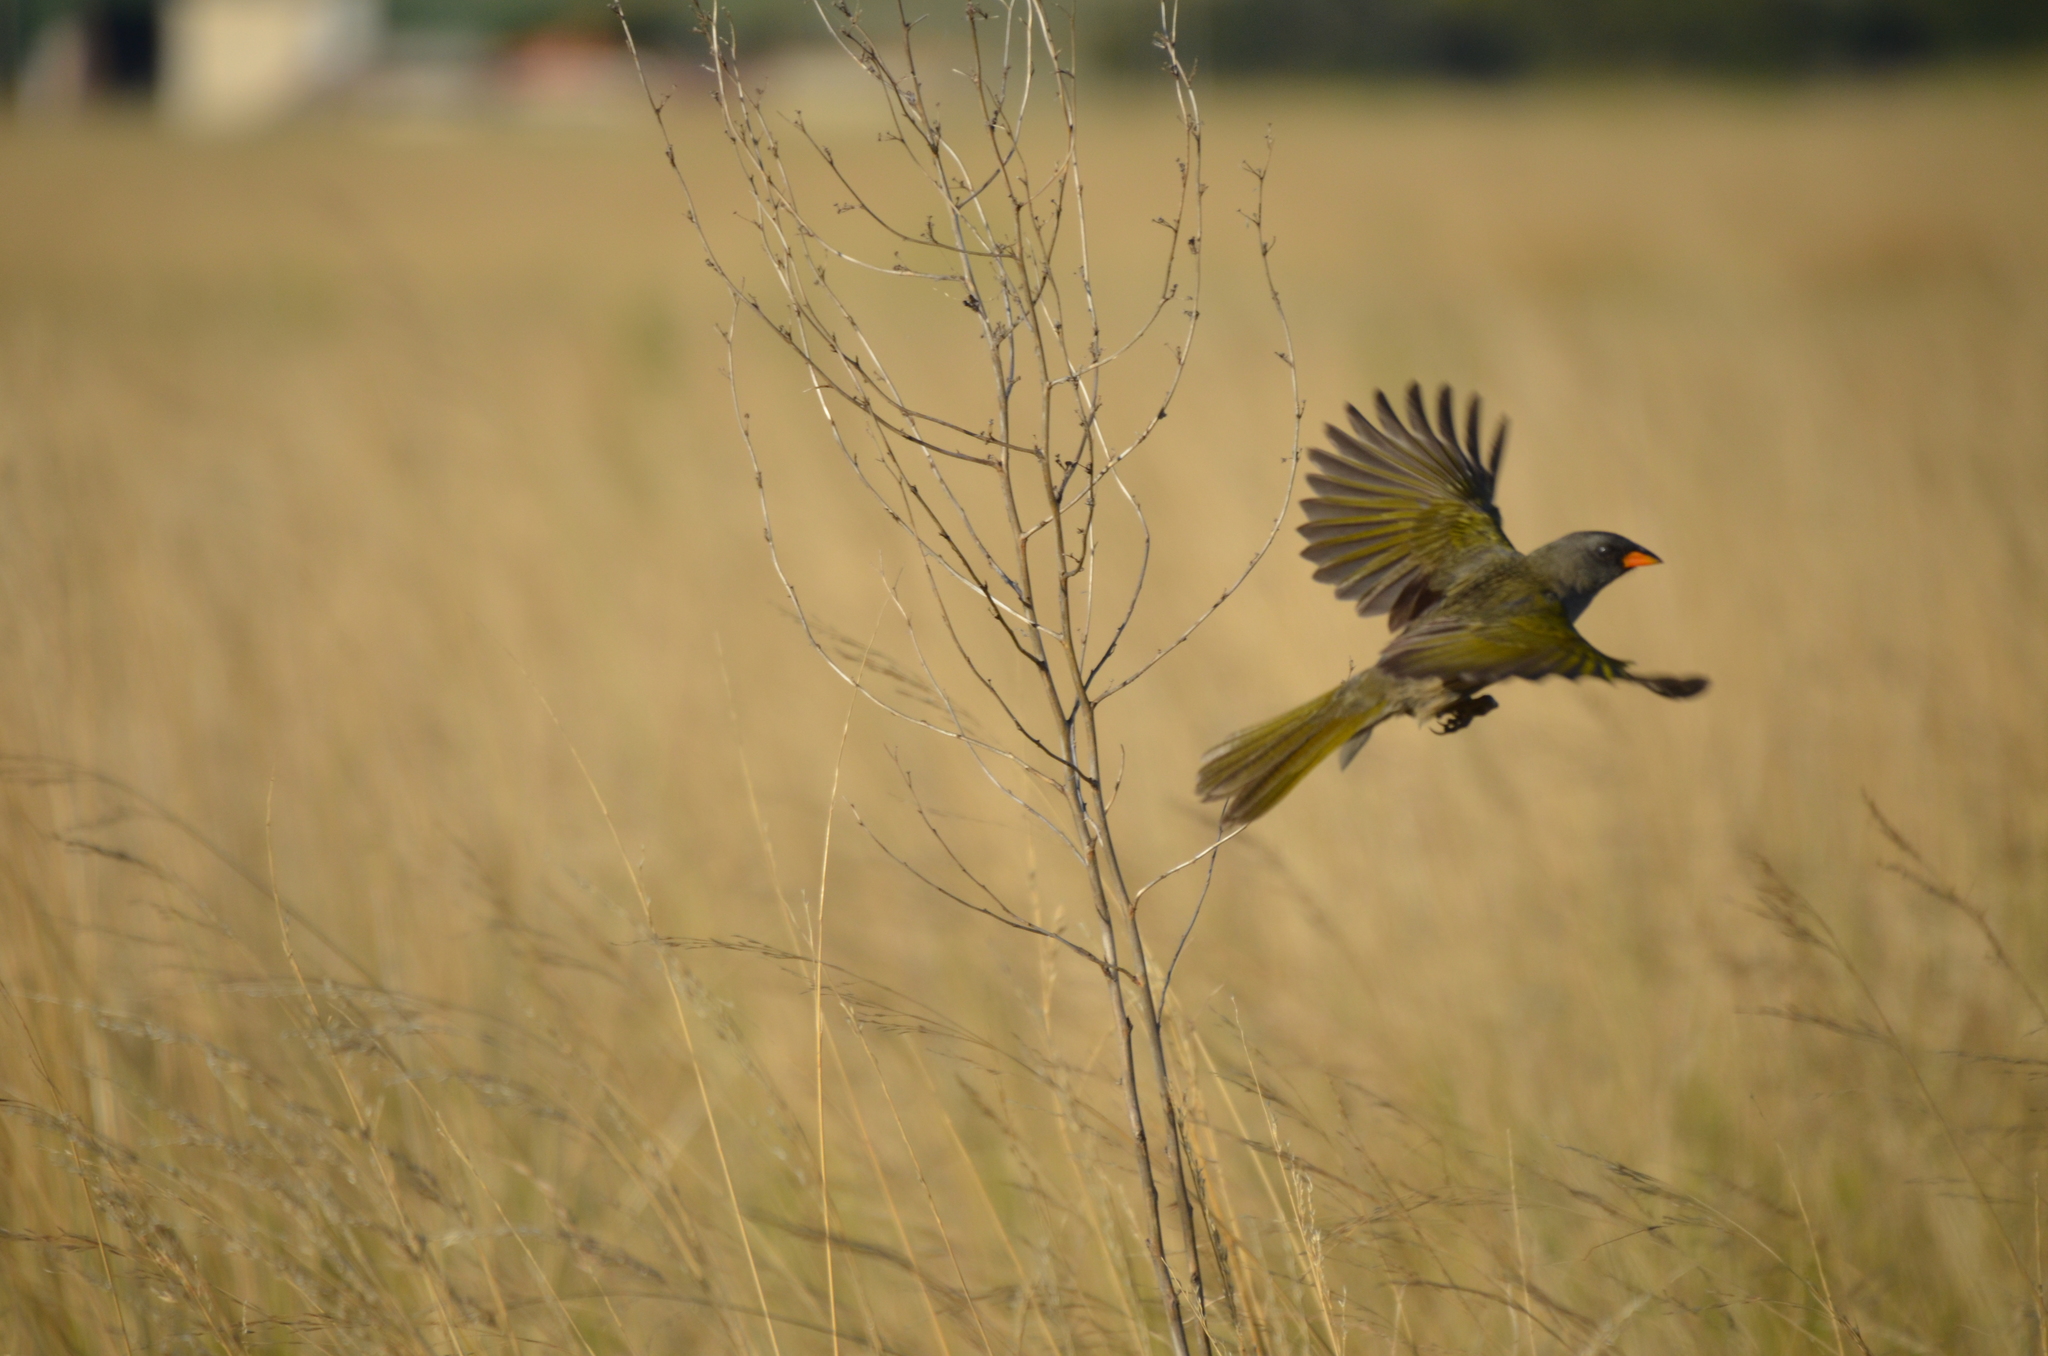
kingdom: Animalia
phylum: Chordata
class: Aves
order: Passeriformes
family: Thraupidae
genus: Embernagra
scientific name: Embernagra platensis
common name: Pampa finch
